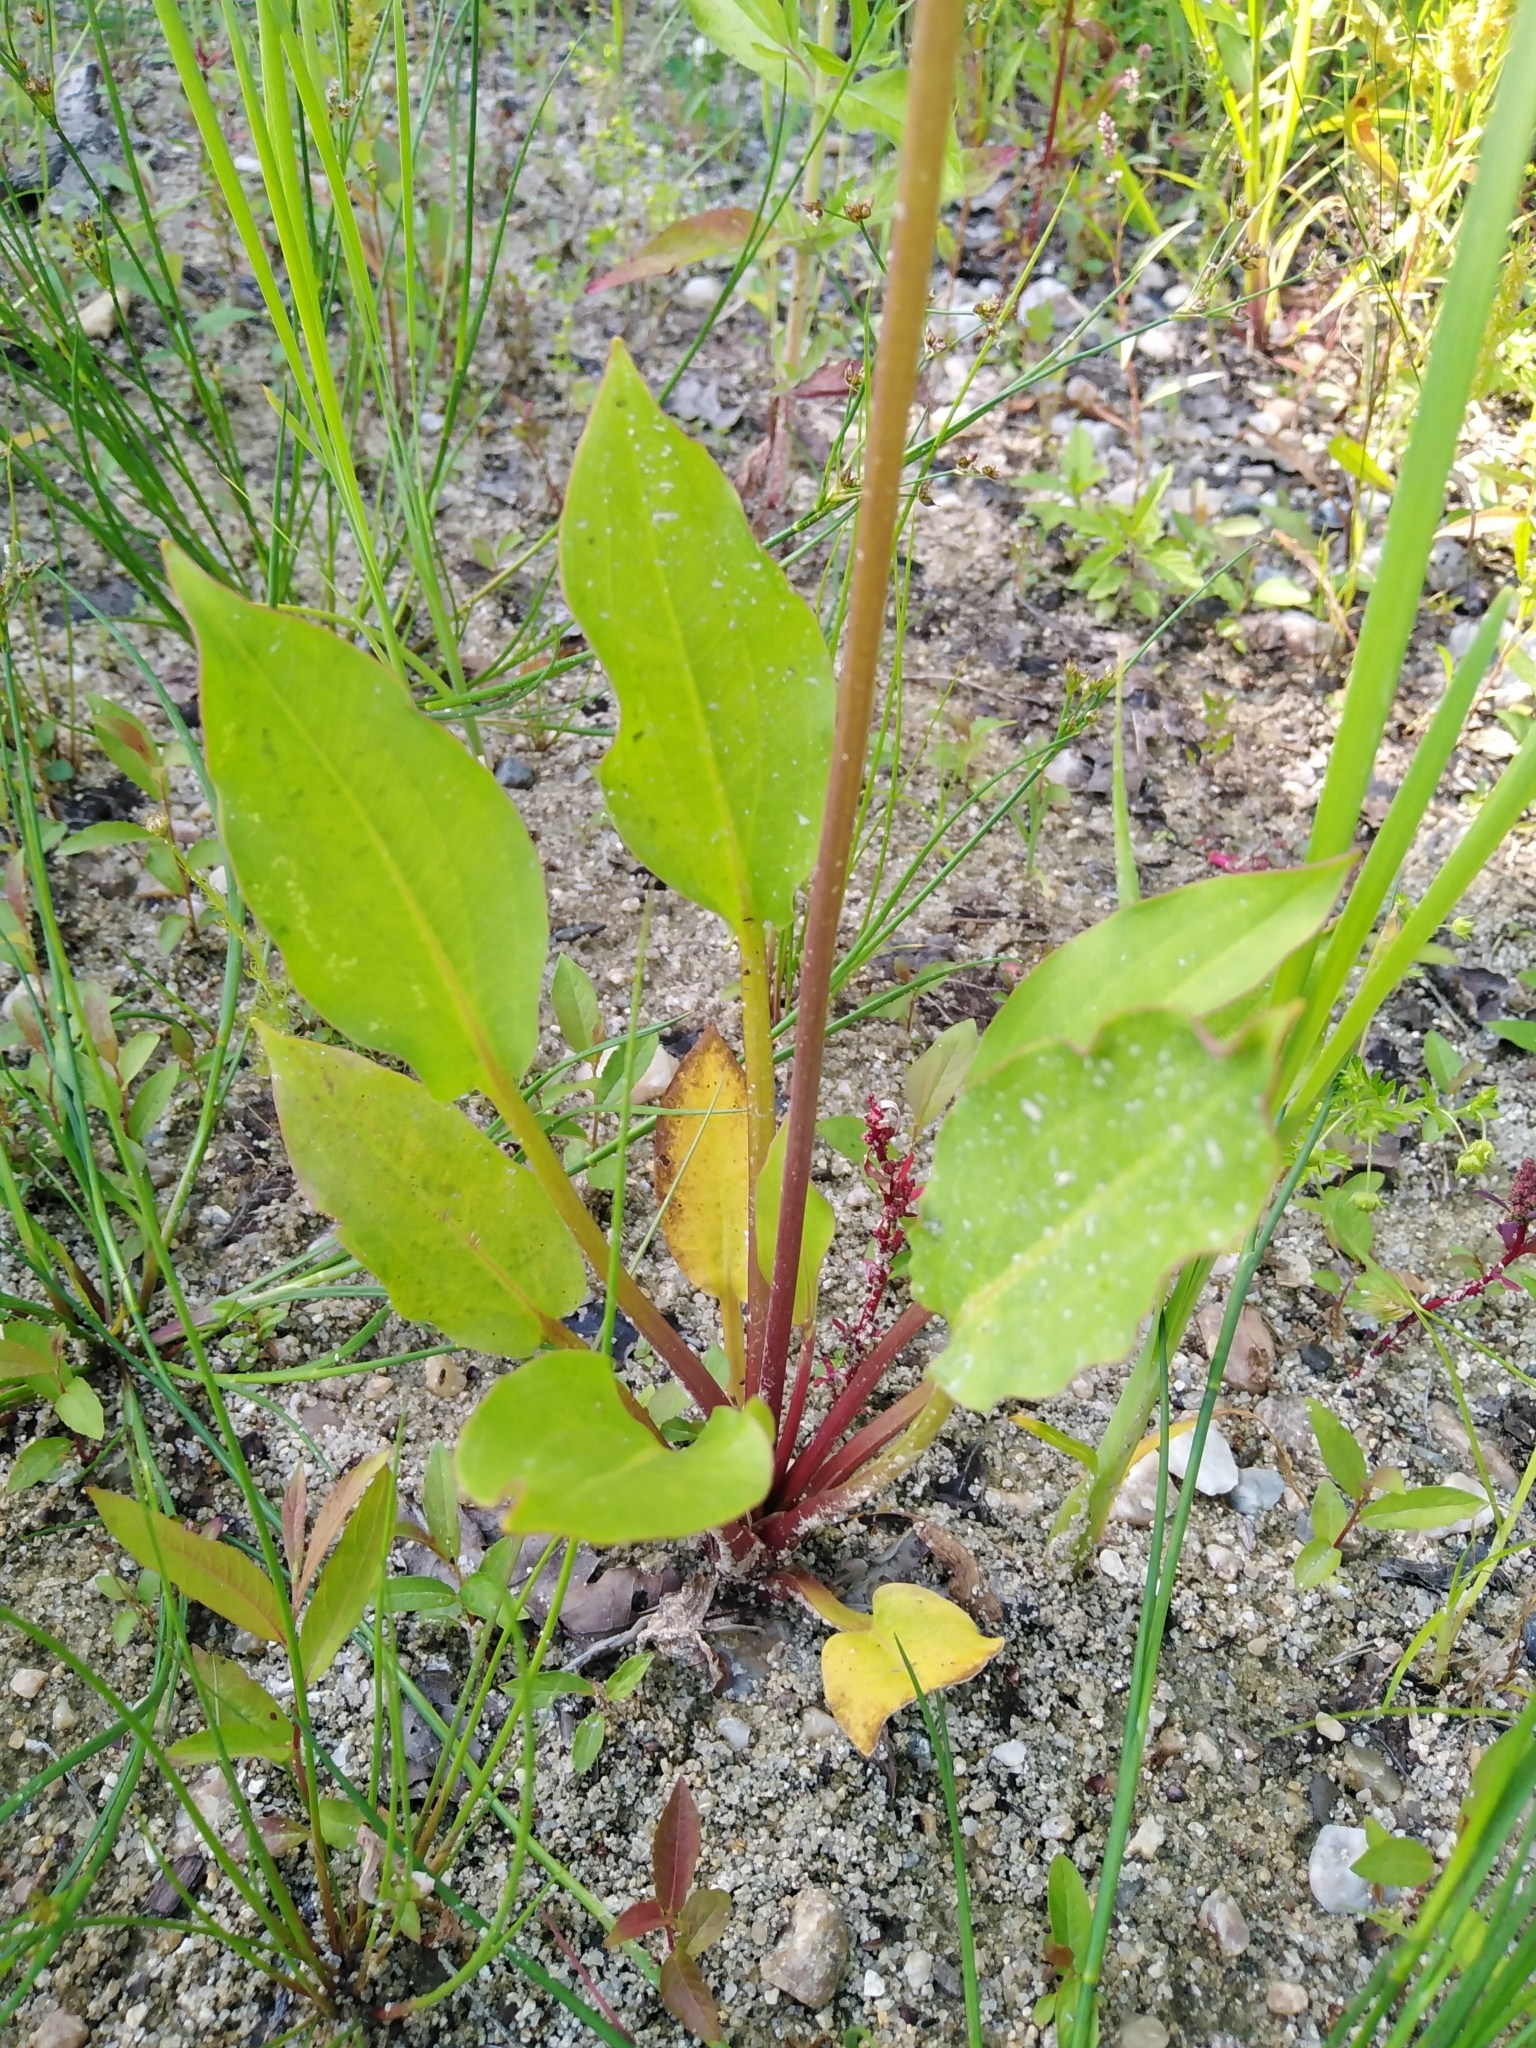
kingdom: Plantae
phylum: Tracheophyta
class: Liliopsida
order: Alismatales
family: Alismataceae
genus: Alisma
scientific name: Alisma plantago-aquatica
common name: Water-plantain
